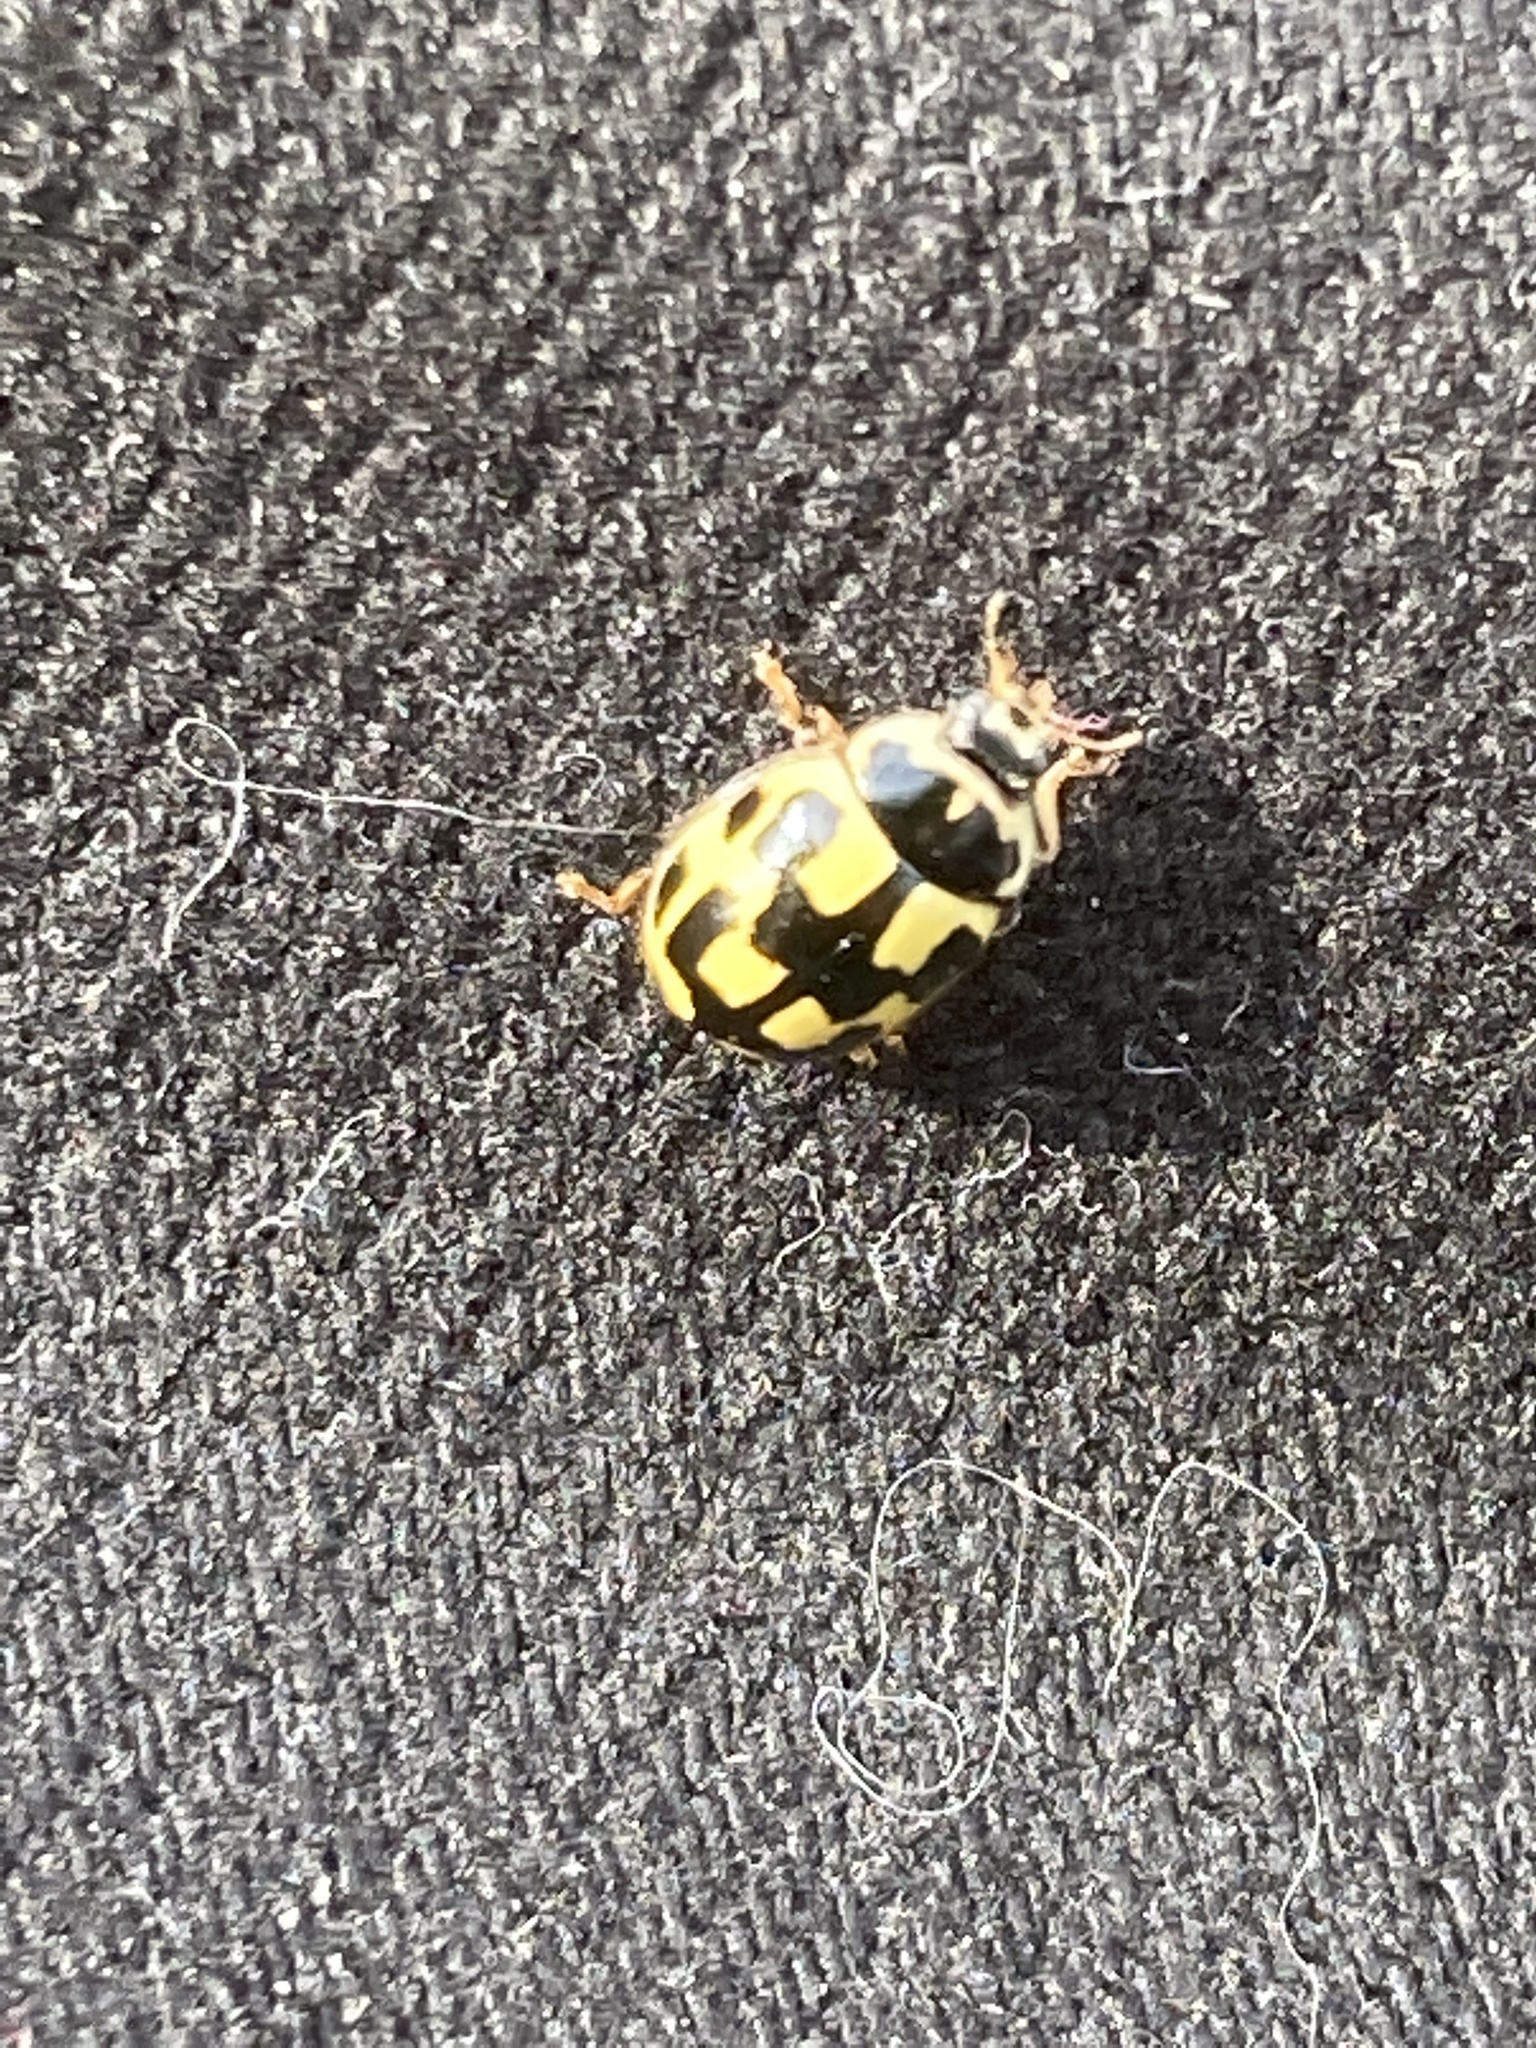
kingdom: Animalia
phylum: Arthropoda
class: Insecta
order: Coleoptera
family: Coccinellidae
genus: Propylaea
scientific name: Propylaea quatuordecimpunctata
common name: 14-spotted ladybird beetle
